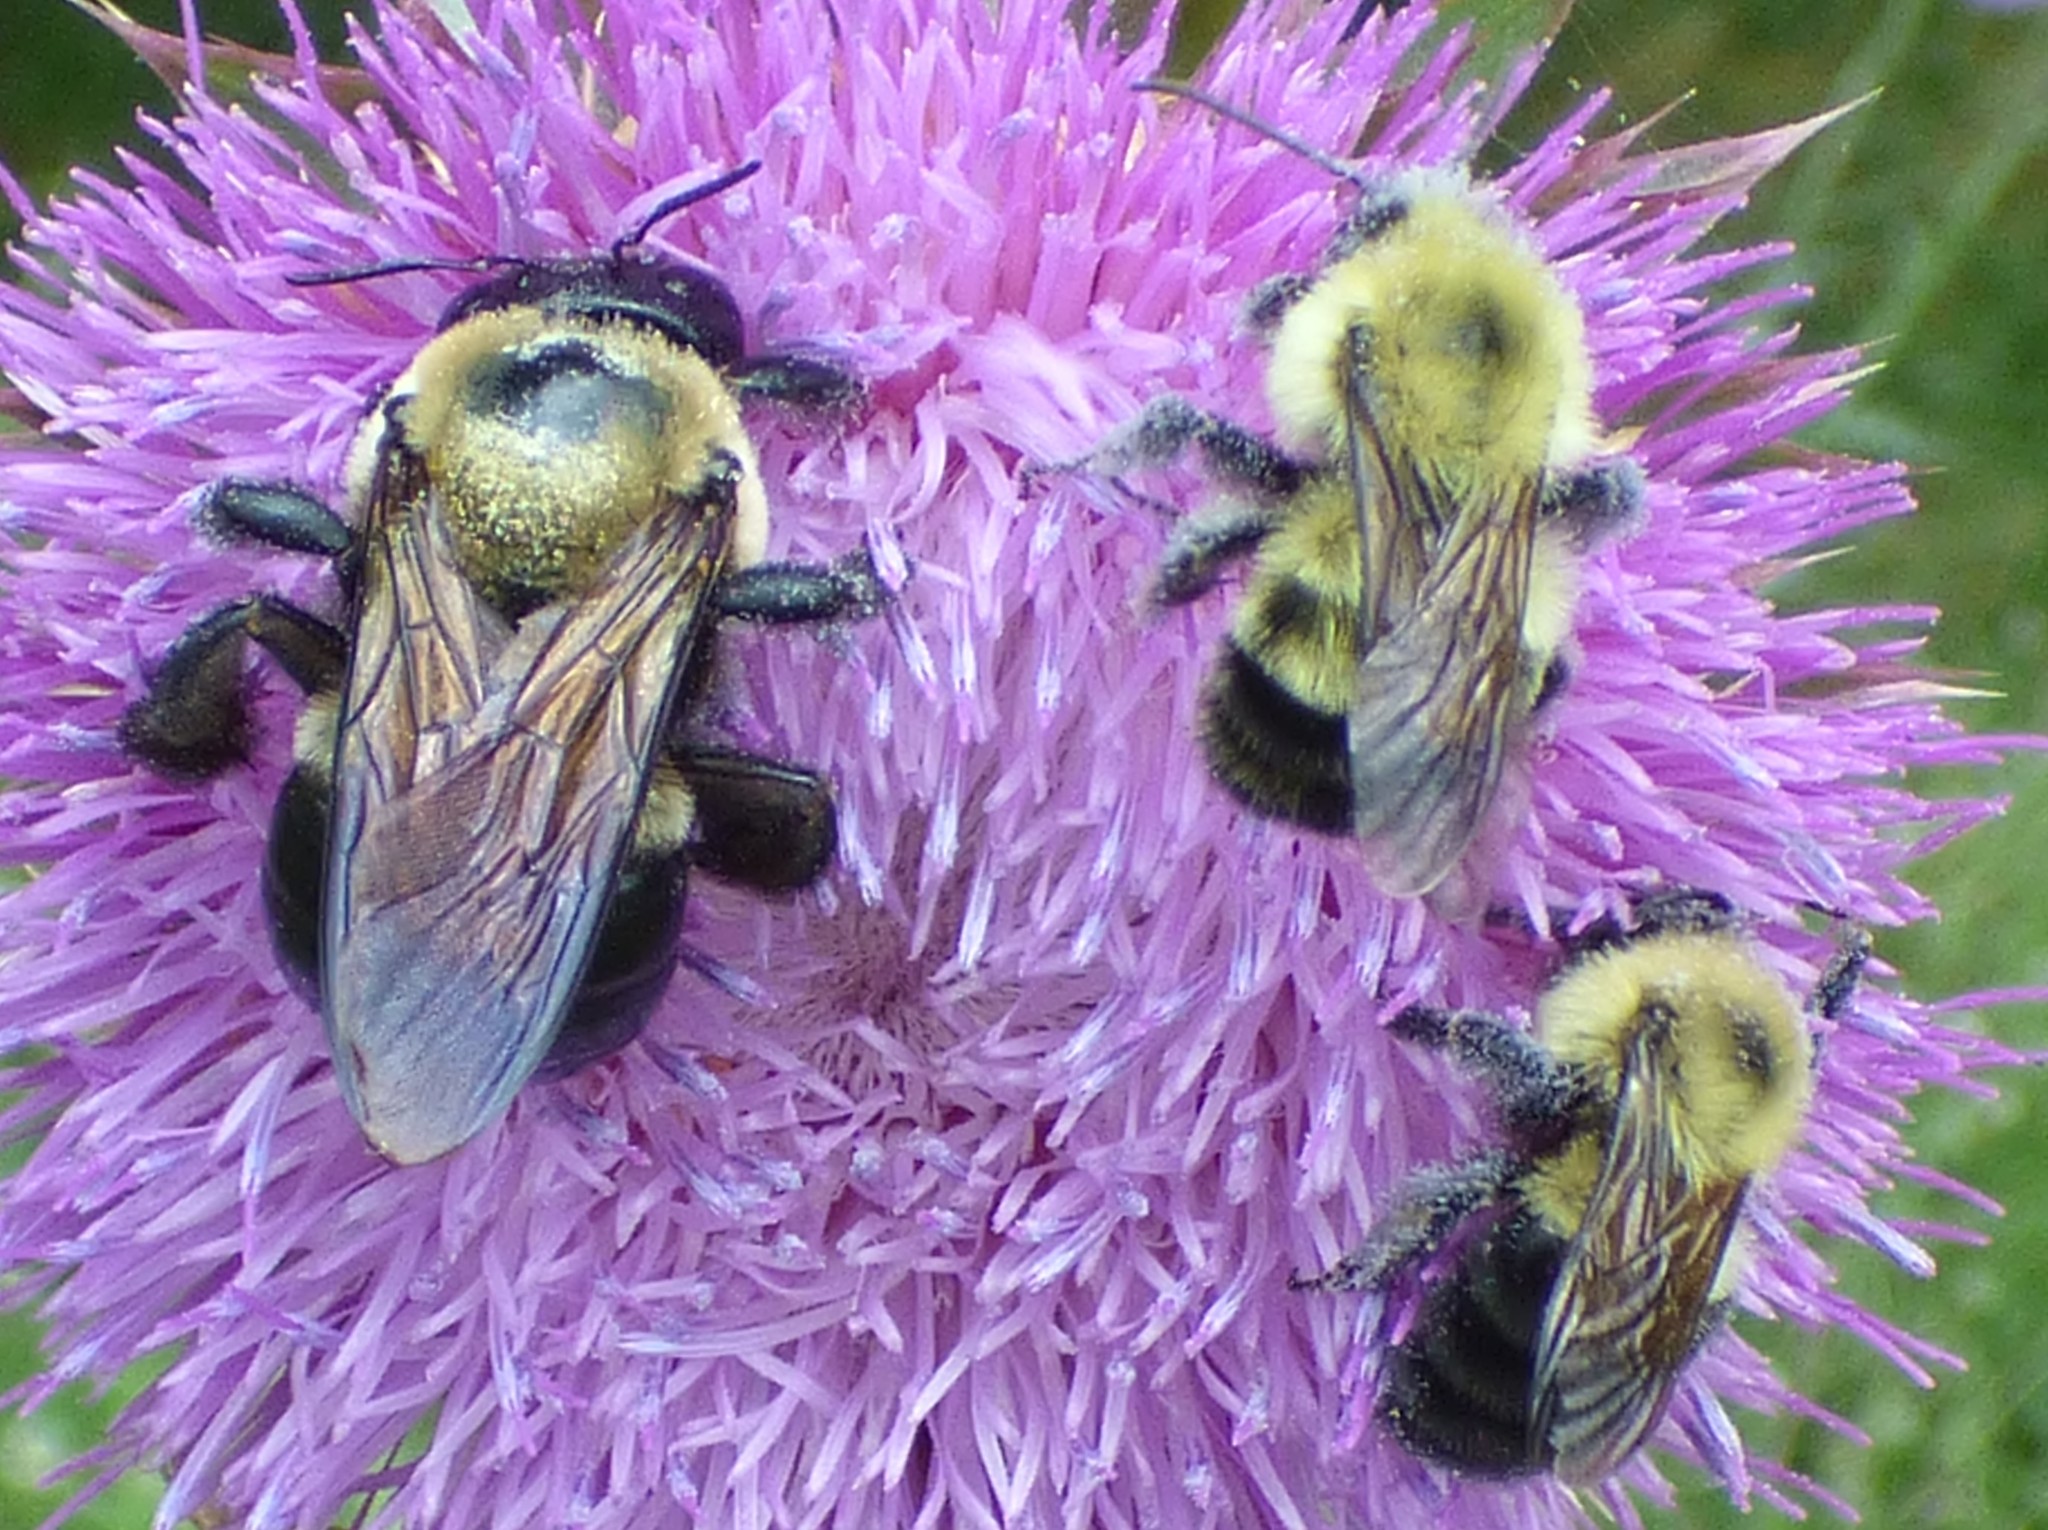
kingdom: Animalia
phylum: Arthropoda
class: Insecta
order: Hymenoptera
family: Apidae
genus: Bombus
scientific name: Bombus bimaculatus
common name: Two-spotted bumble bee
